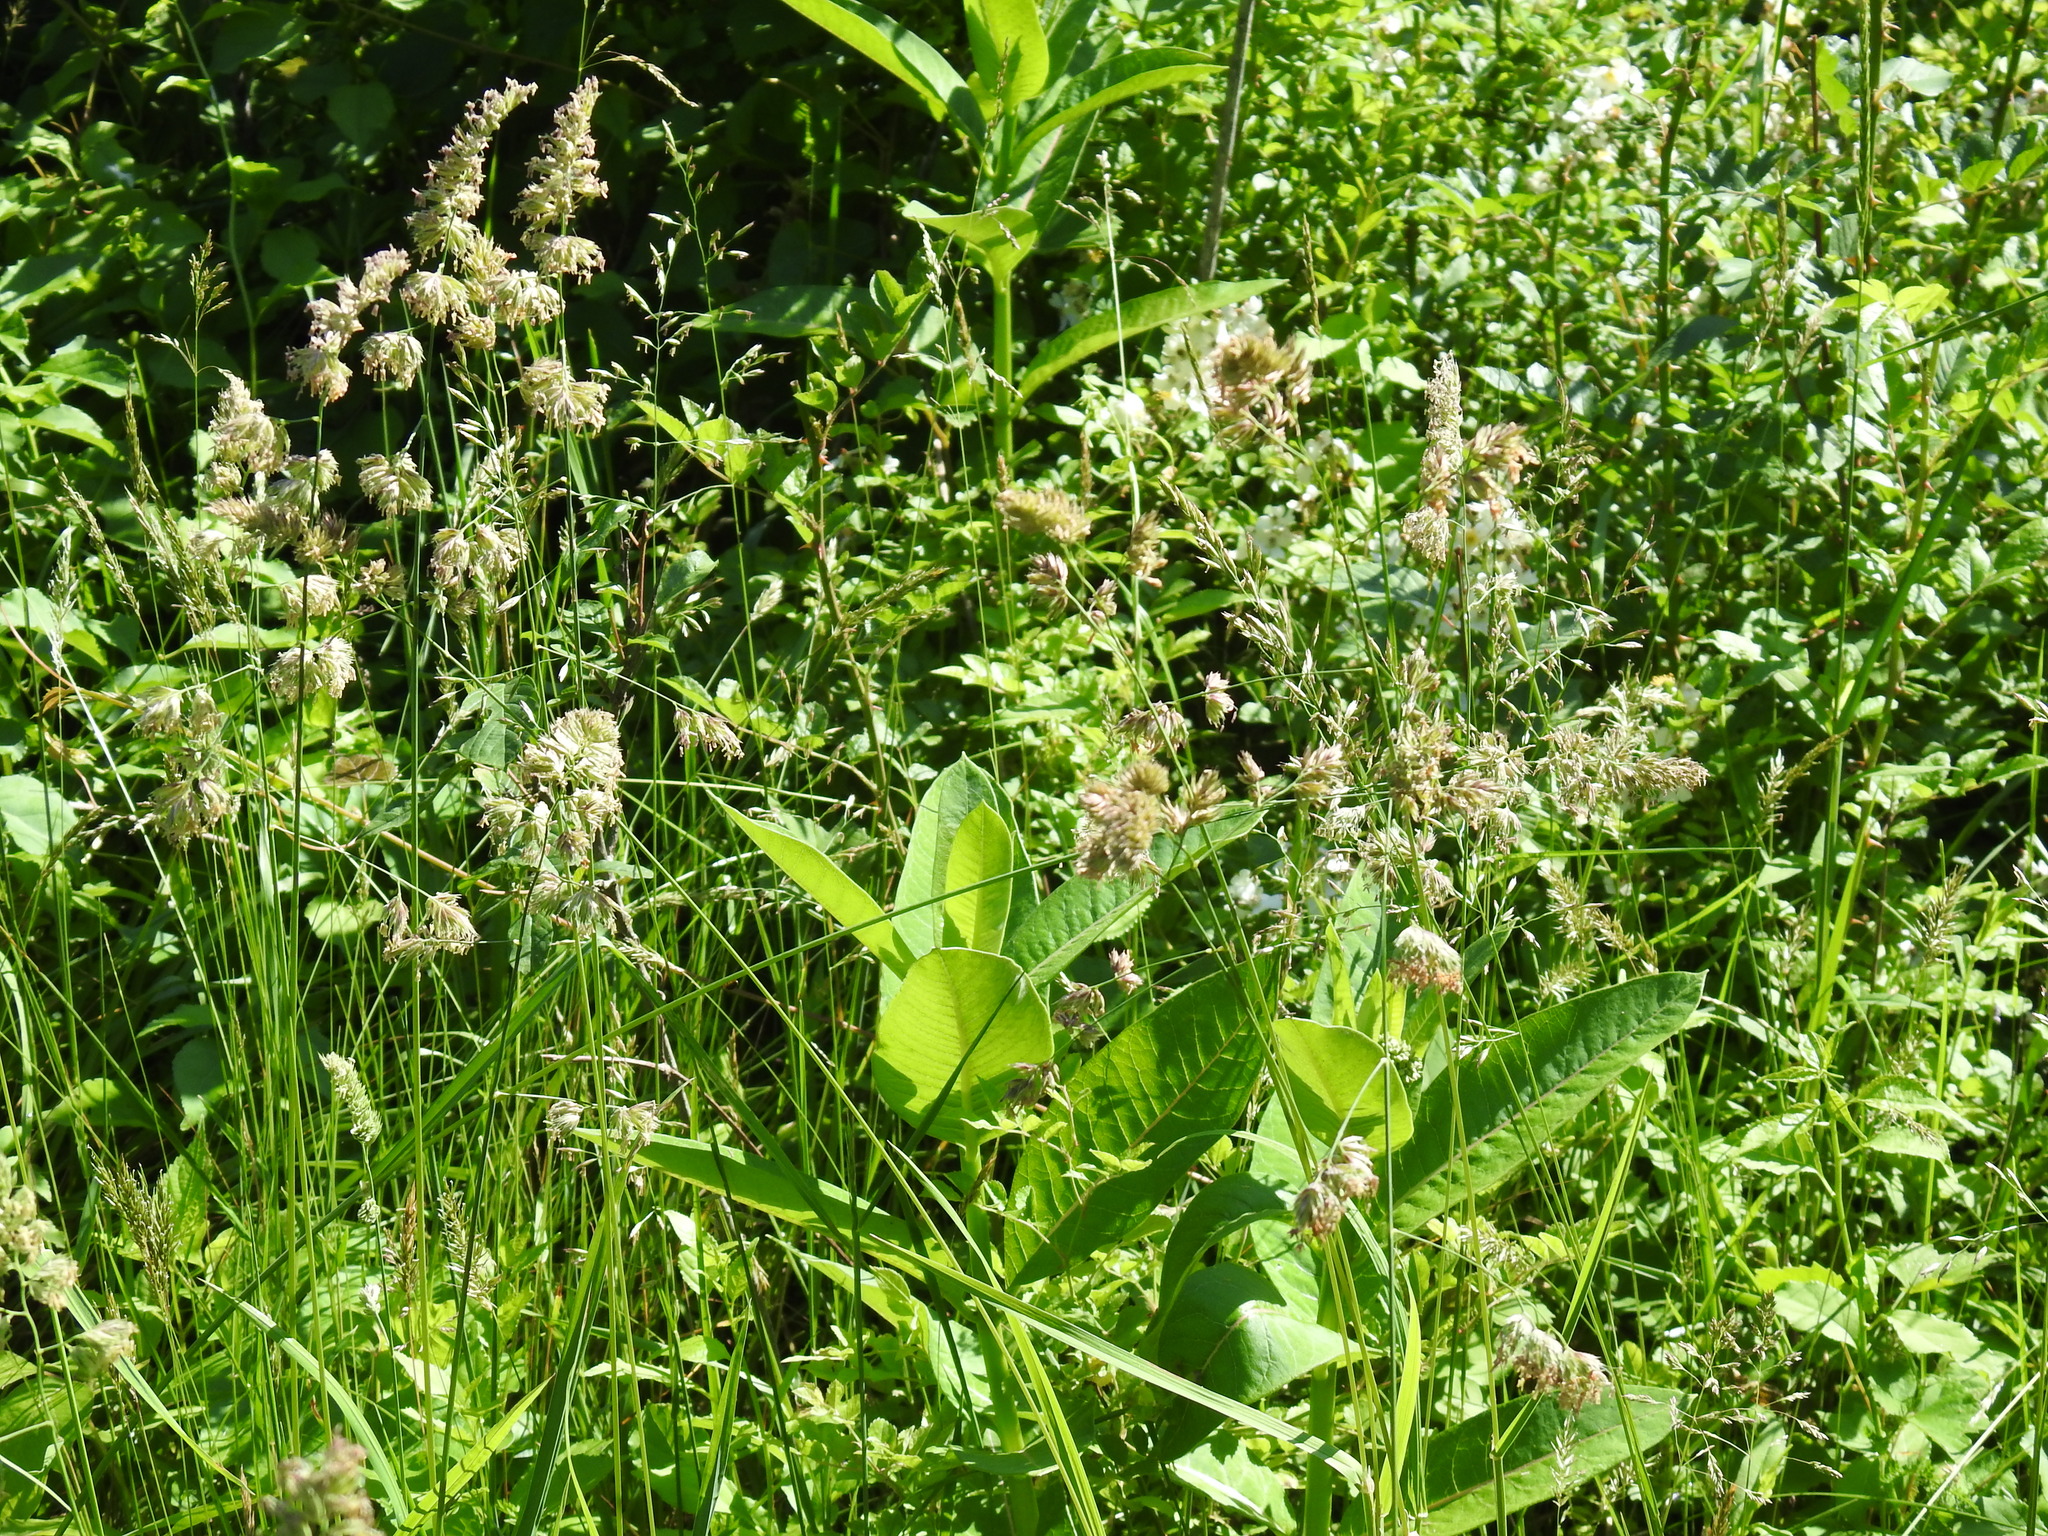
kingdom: Plantae
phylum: Tracheophyta
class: Liliopsida
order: Poales
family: Poaceae
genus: Dactylis
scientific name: Dactylis glomerata
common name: Orchardgrass
